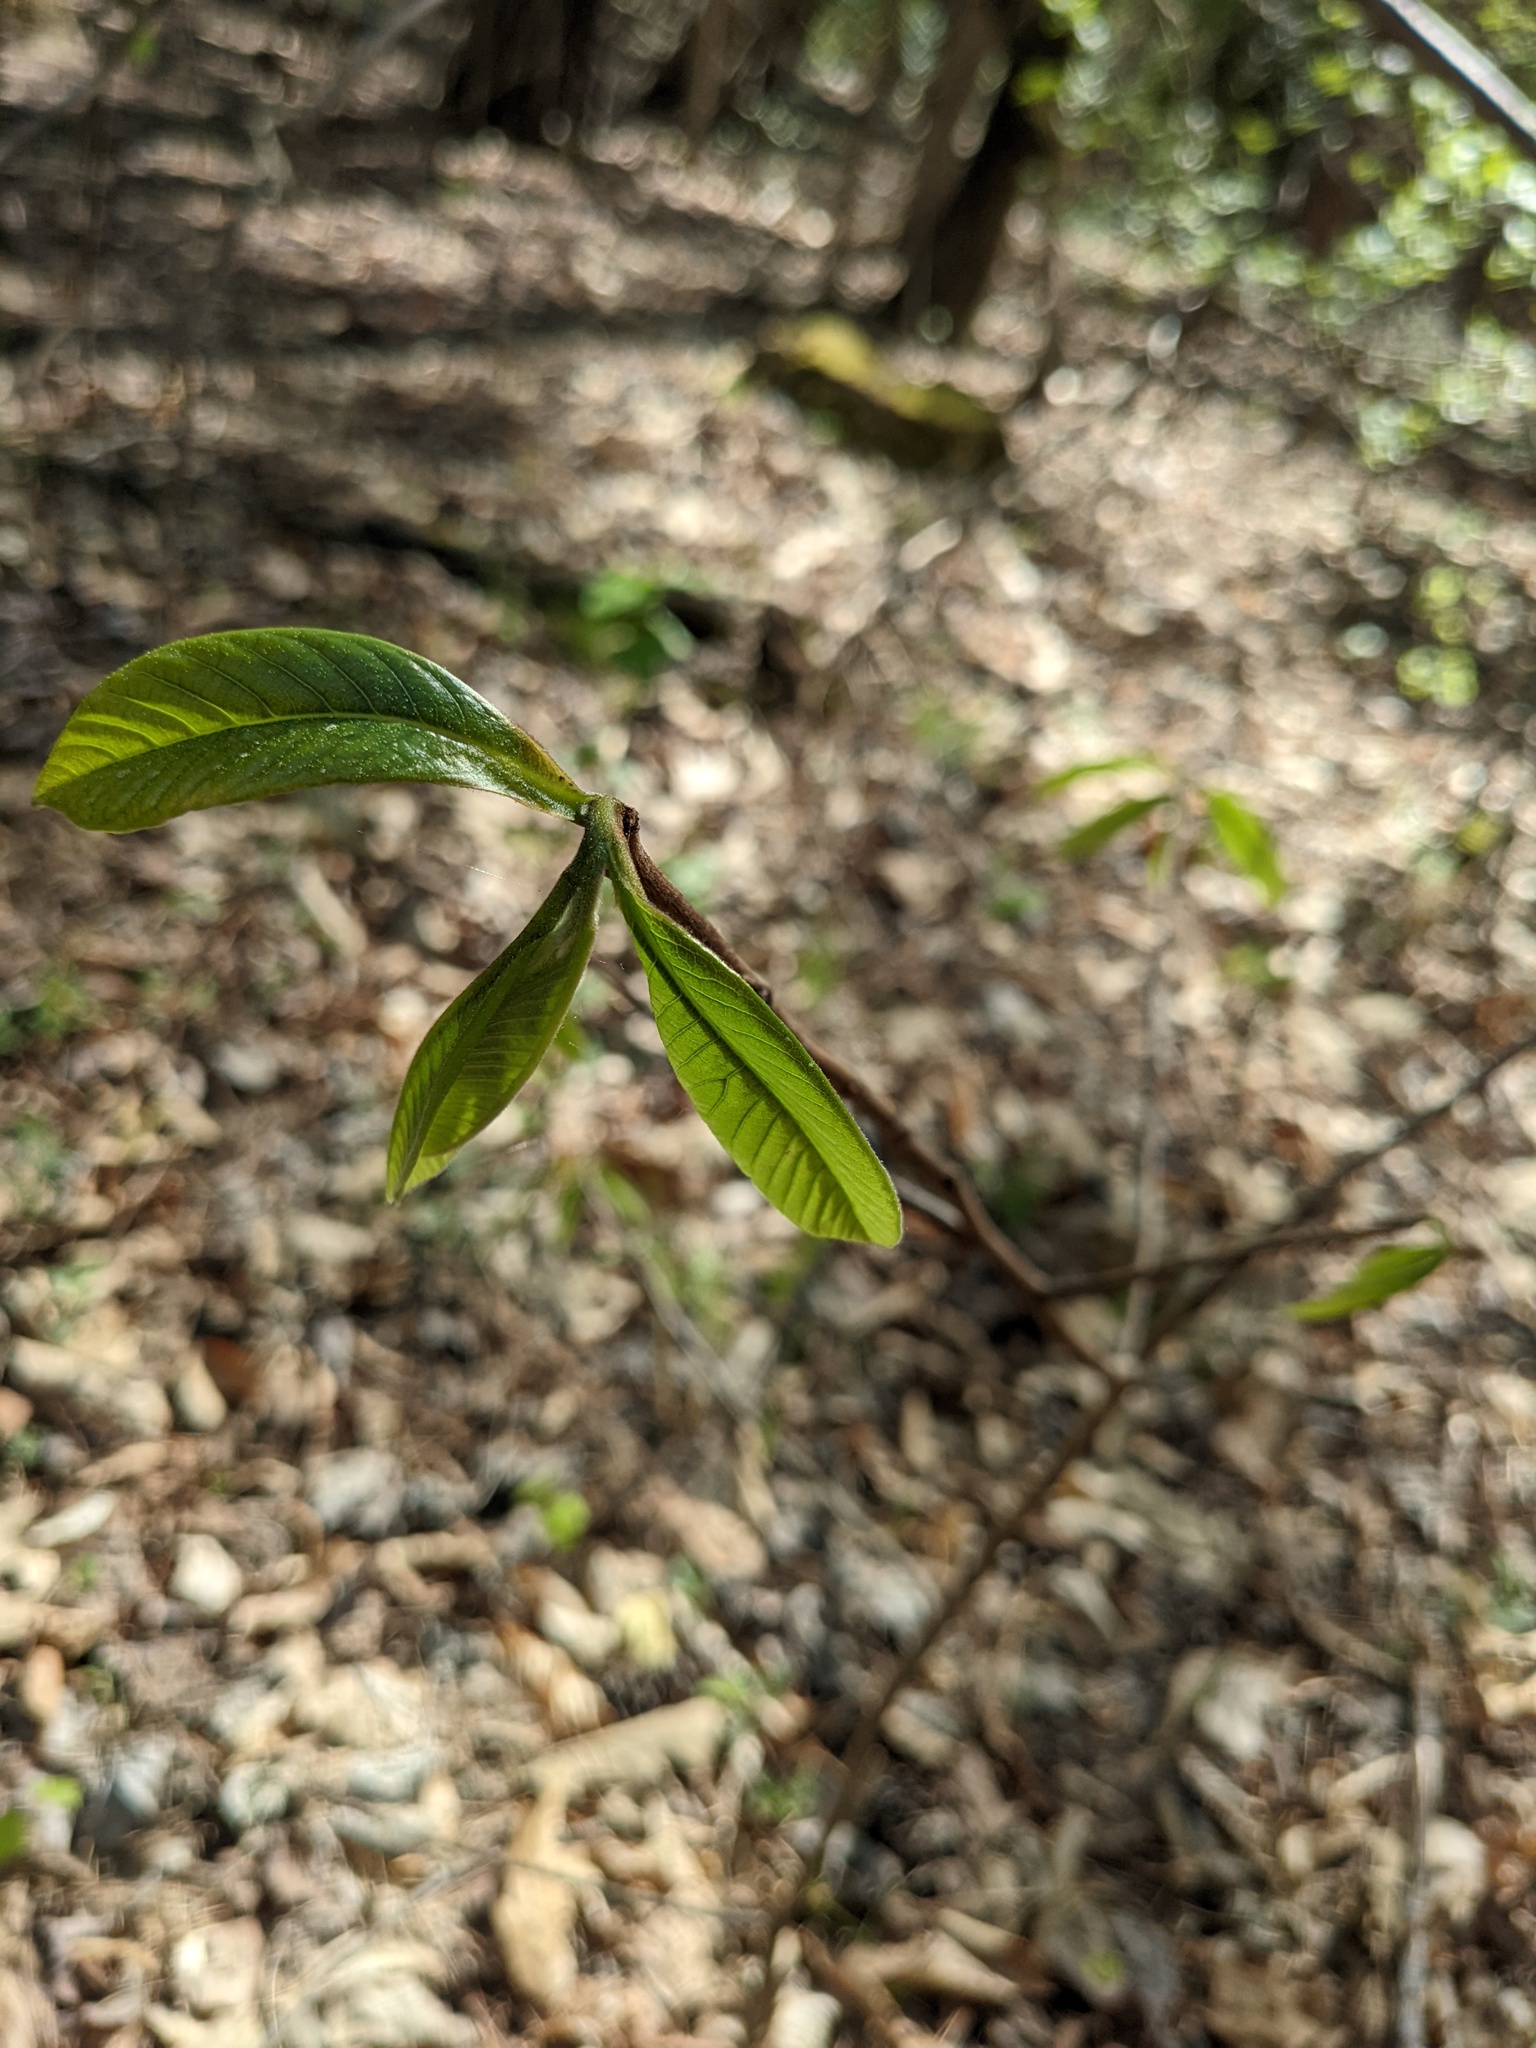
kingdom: Plantae
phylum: Tracheophyta
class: Magnoliopsida
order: Magnoliales
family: Annonaceae
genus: Asimina
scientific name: Asimina triloba
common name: Dog-banana
